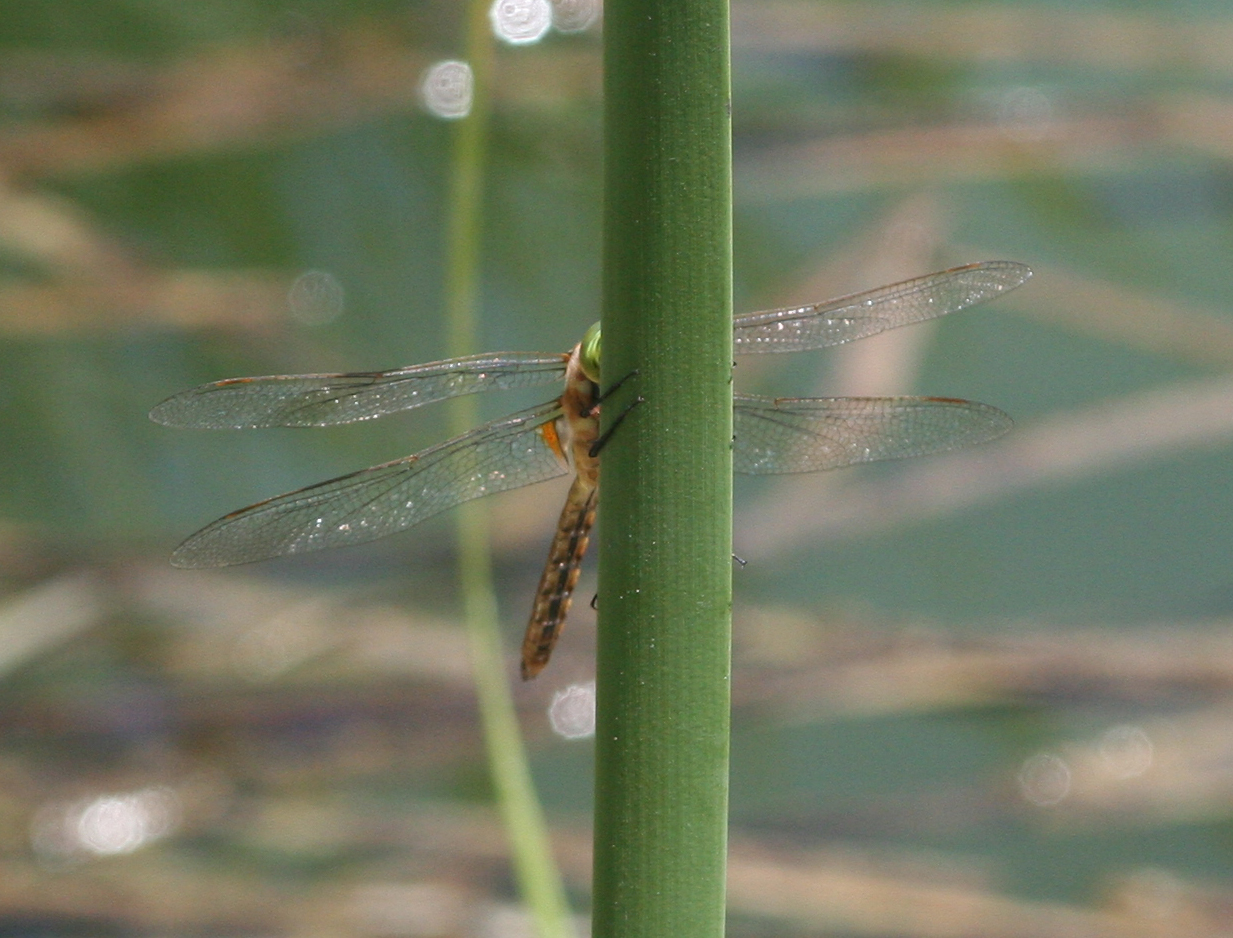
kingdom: Animalia
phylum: Arthropoda
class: Insecta
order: Odonata
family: Aeshnidae
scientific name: Aeshnidae
